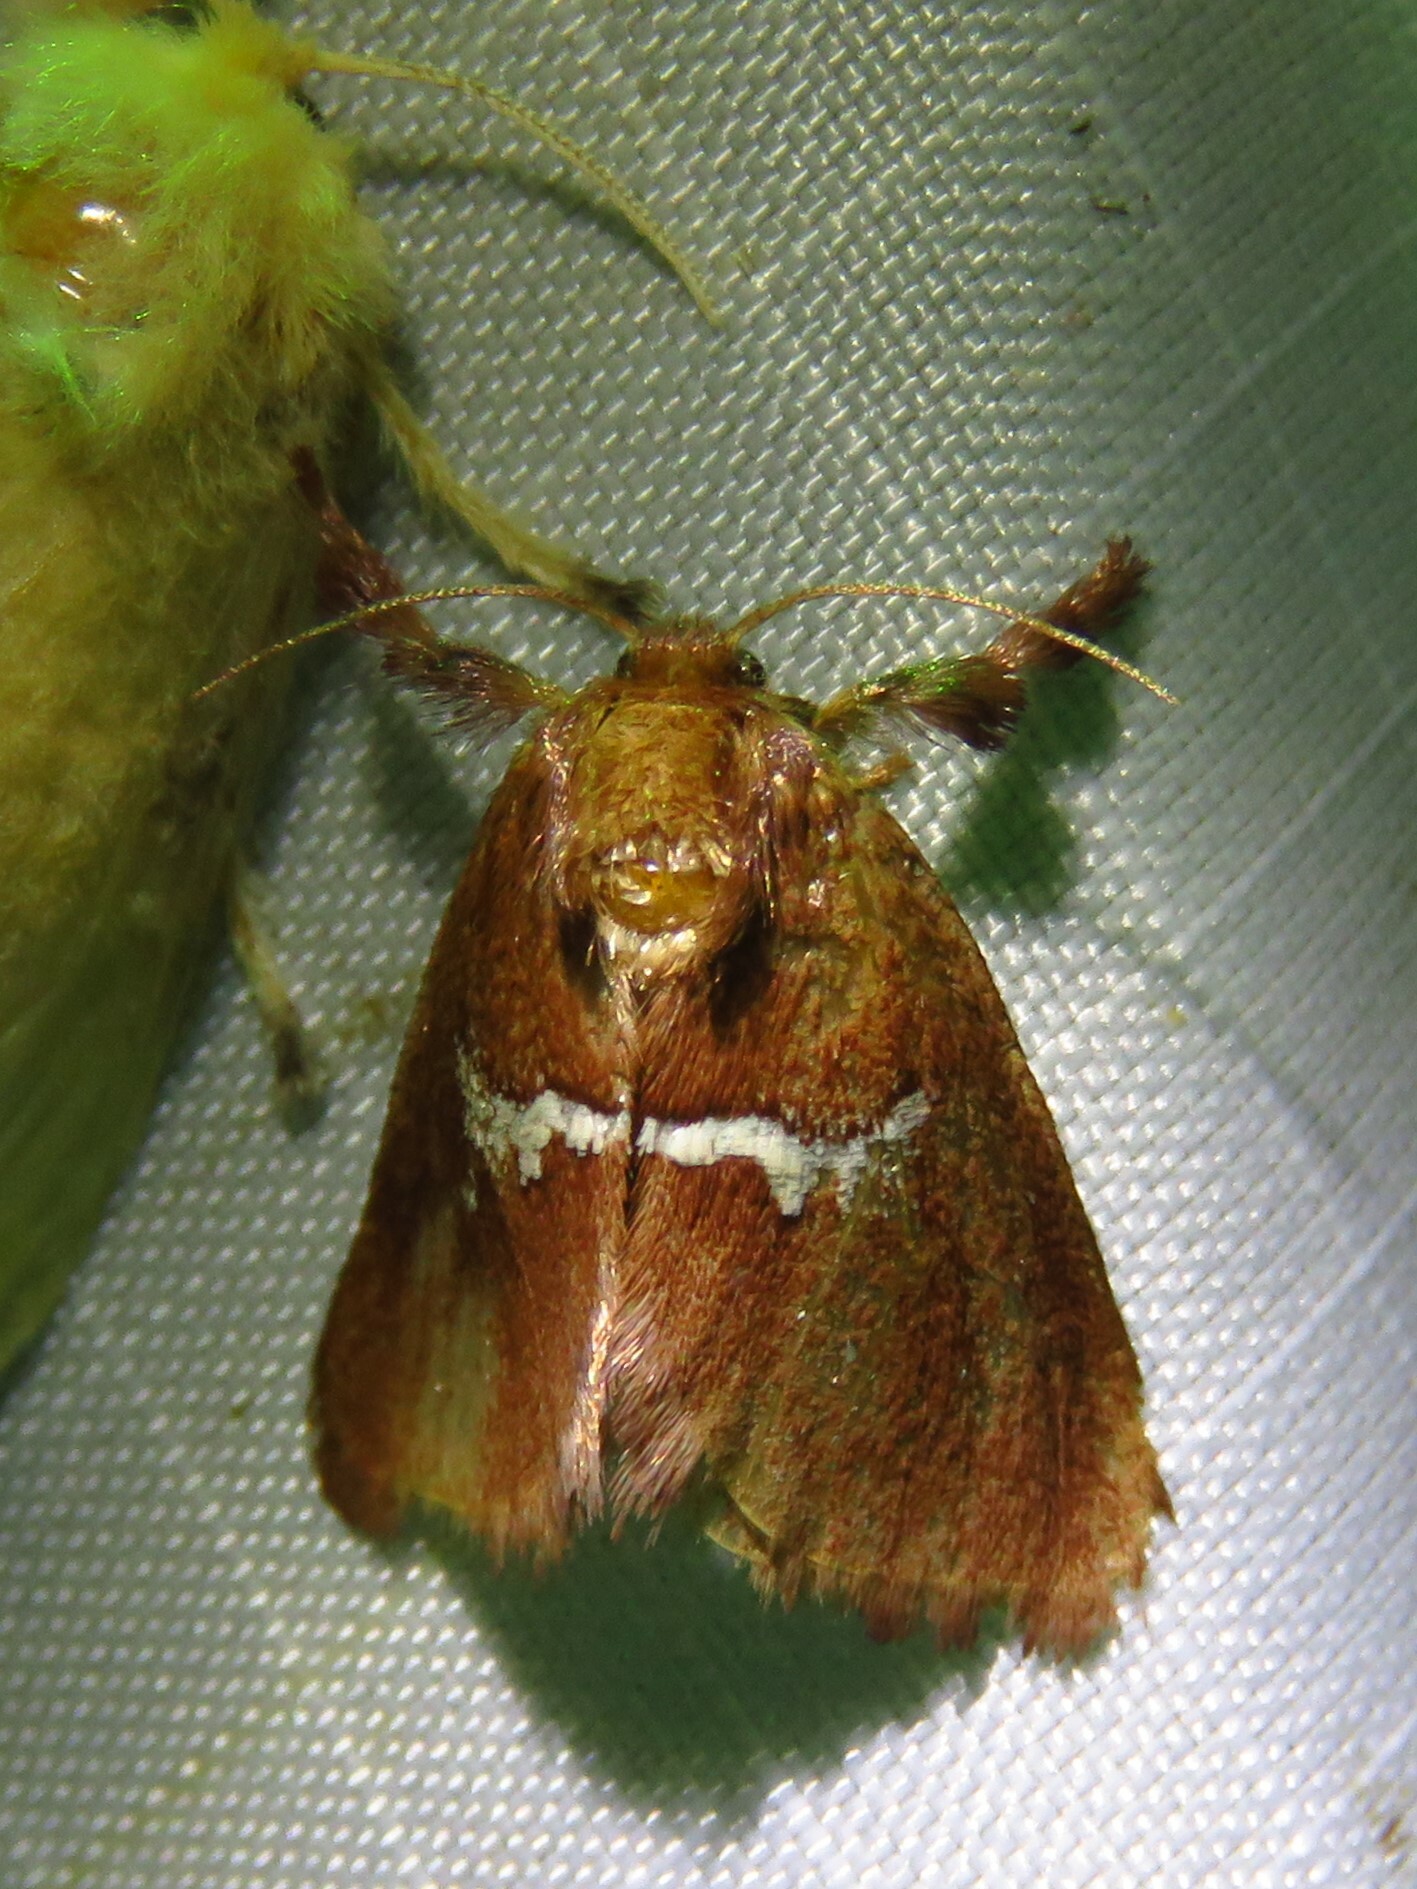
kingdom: Animalia
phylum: Arthropoda
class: Insecta
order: Lepidoptera
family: Limacodidae
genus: Monoleuca
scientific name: Monoleuca semifascia
